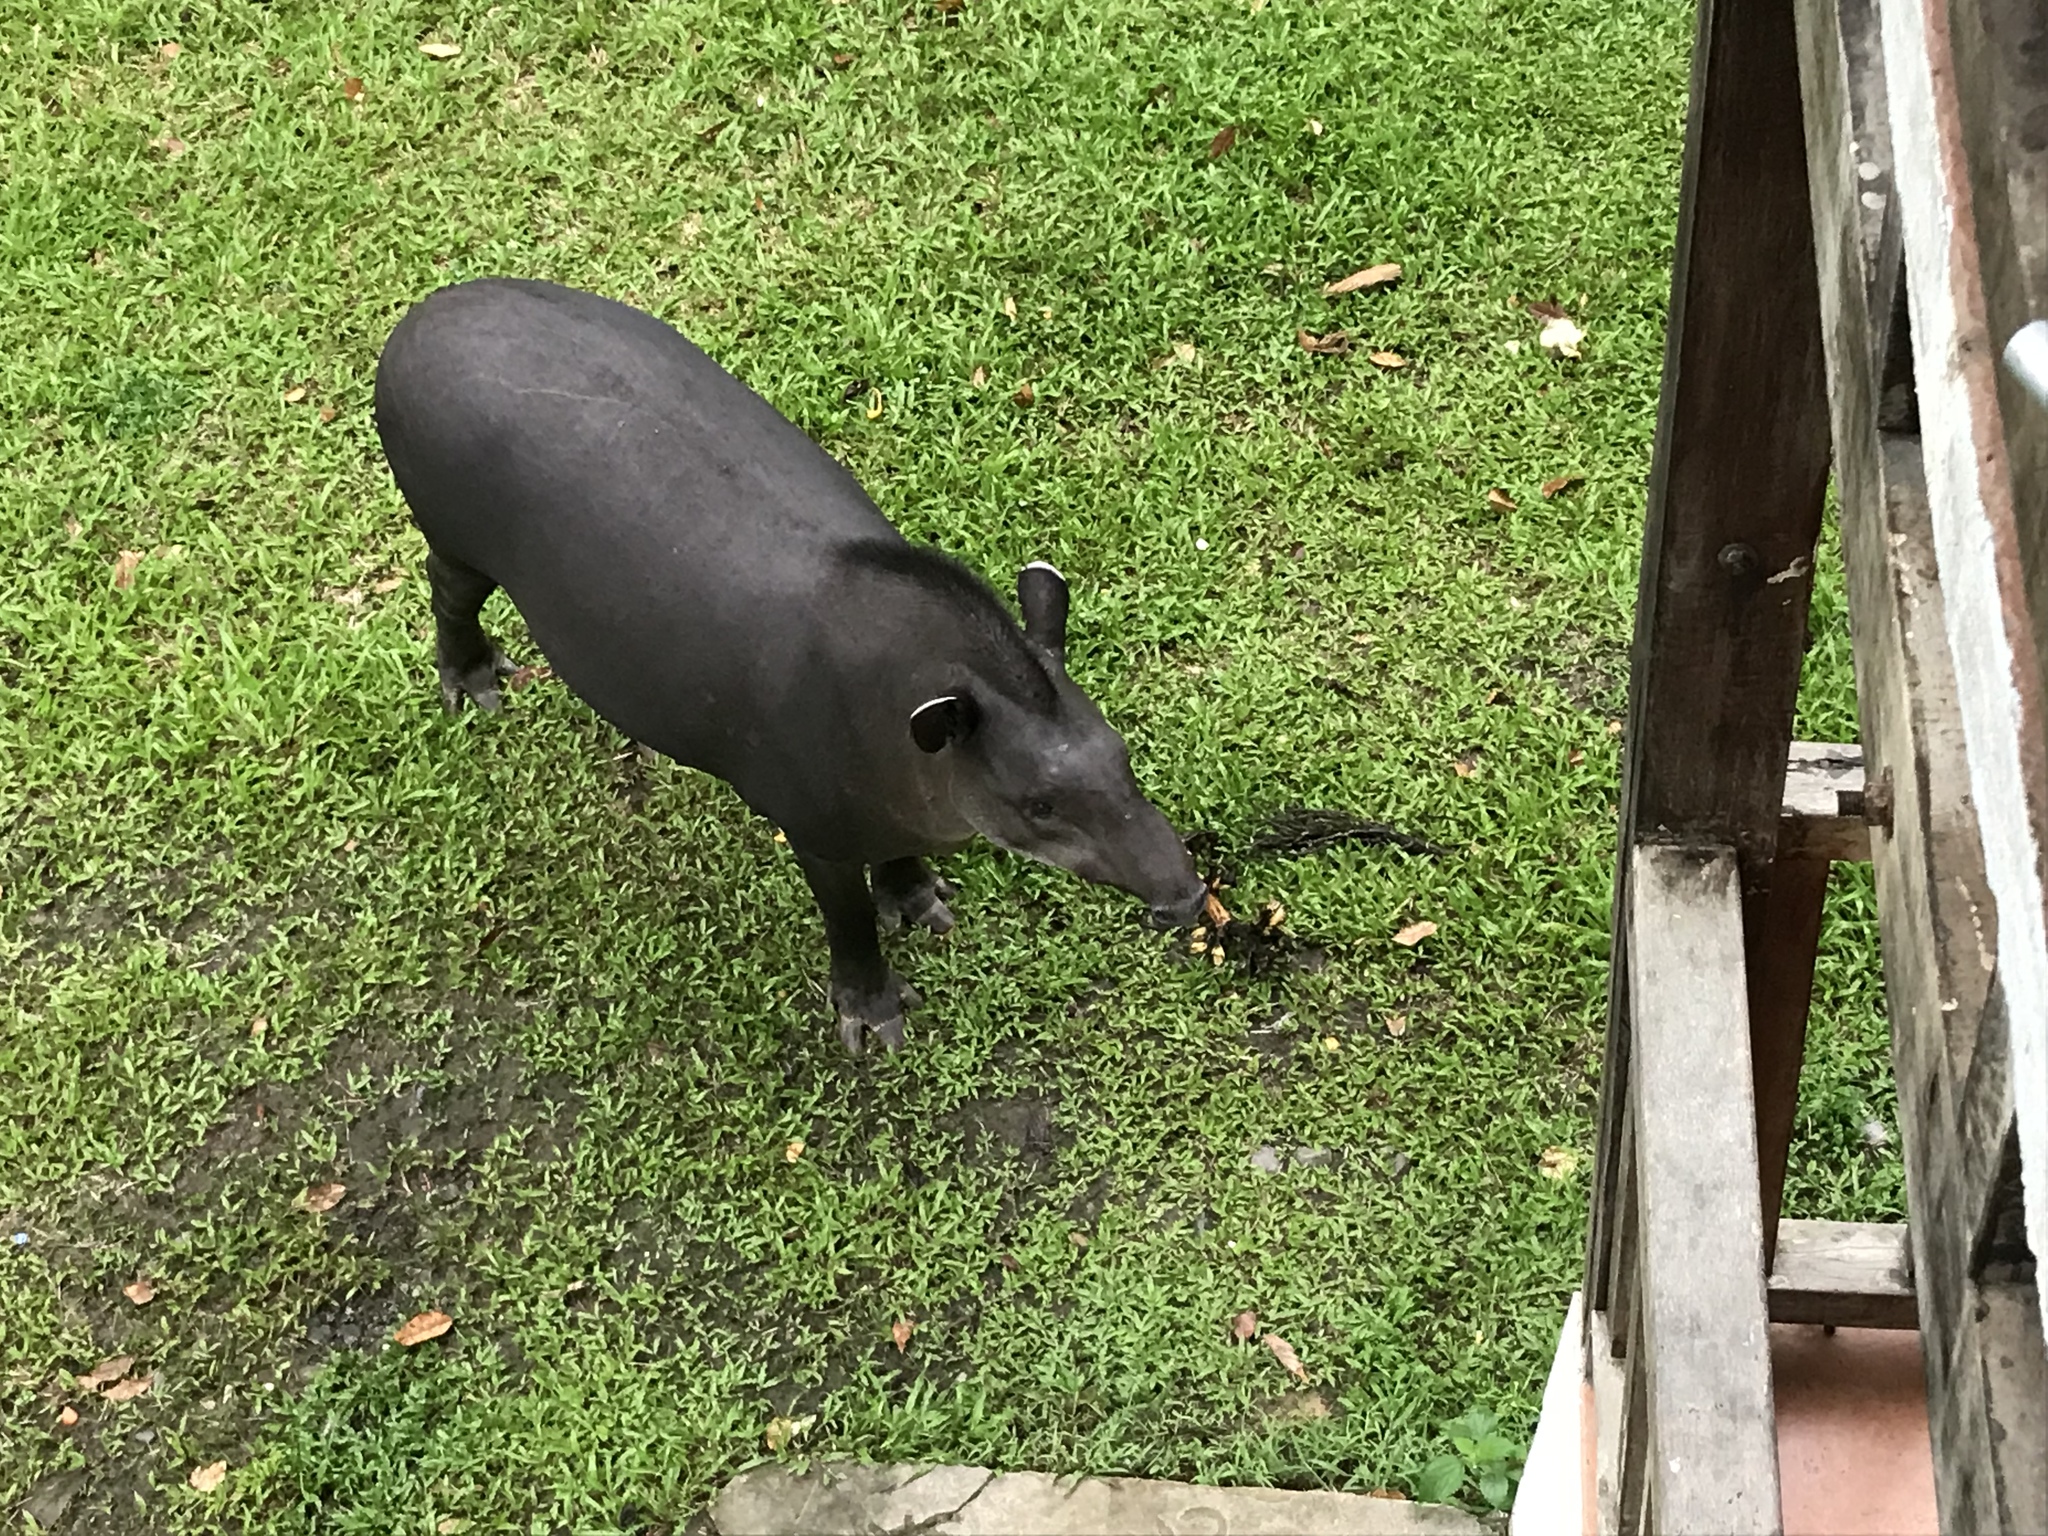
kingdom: Animalia
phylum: Chordata
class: Mammalia
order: Perissodactyla
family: Tapiridae
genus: Tapirus
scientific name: Tapirus terrestris
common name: Brazilian tapir
